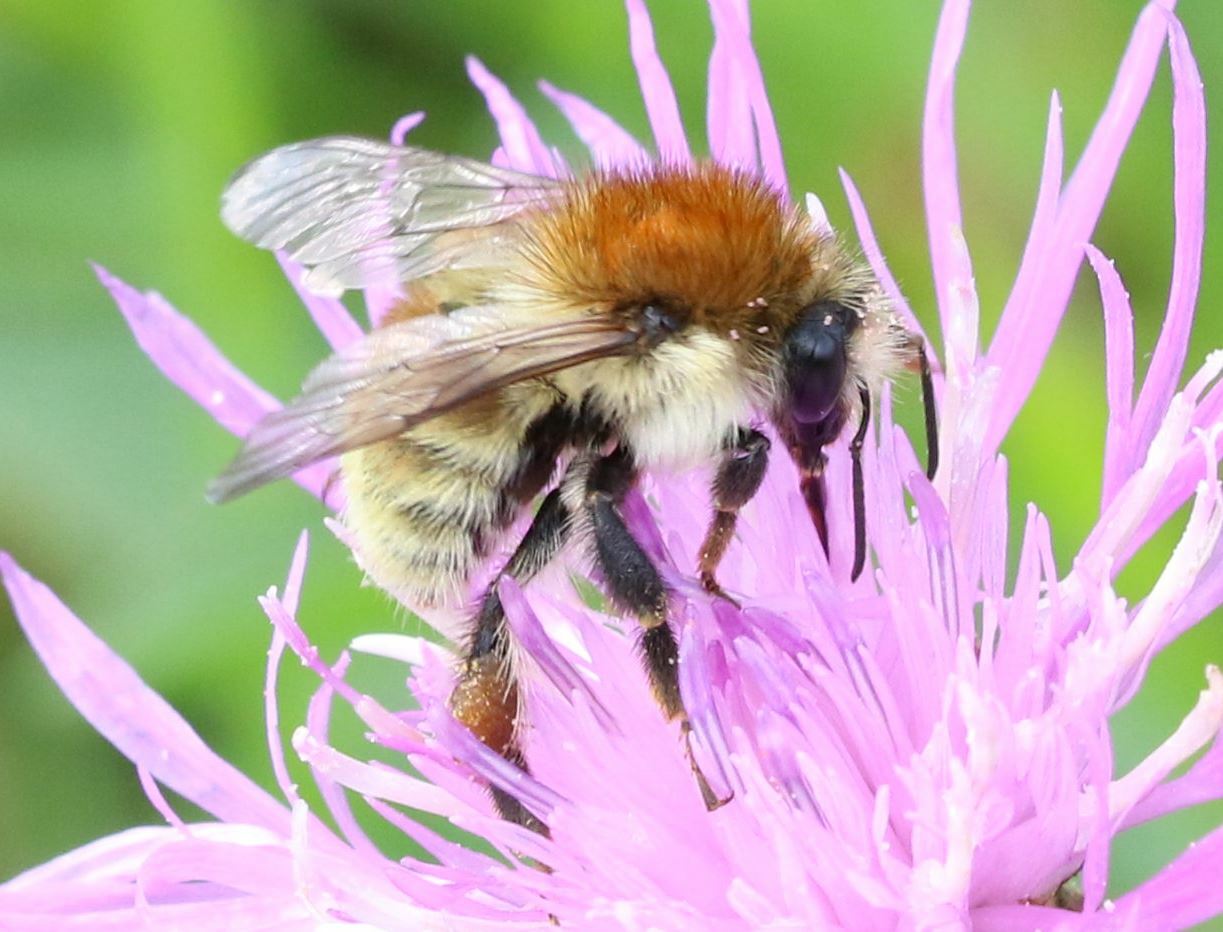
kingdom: Animalia
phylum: Arthropoda
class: Insecta
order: Hymenoptera
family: Apidae
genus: Bombus
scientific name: Bombus humilis
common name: Brown-banded carder-bee
